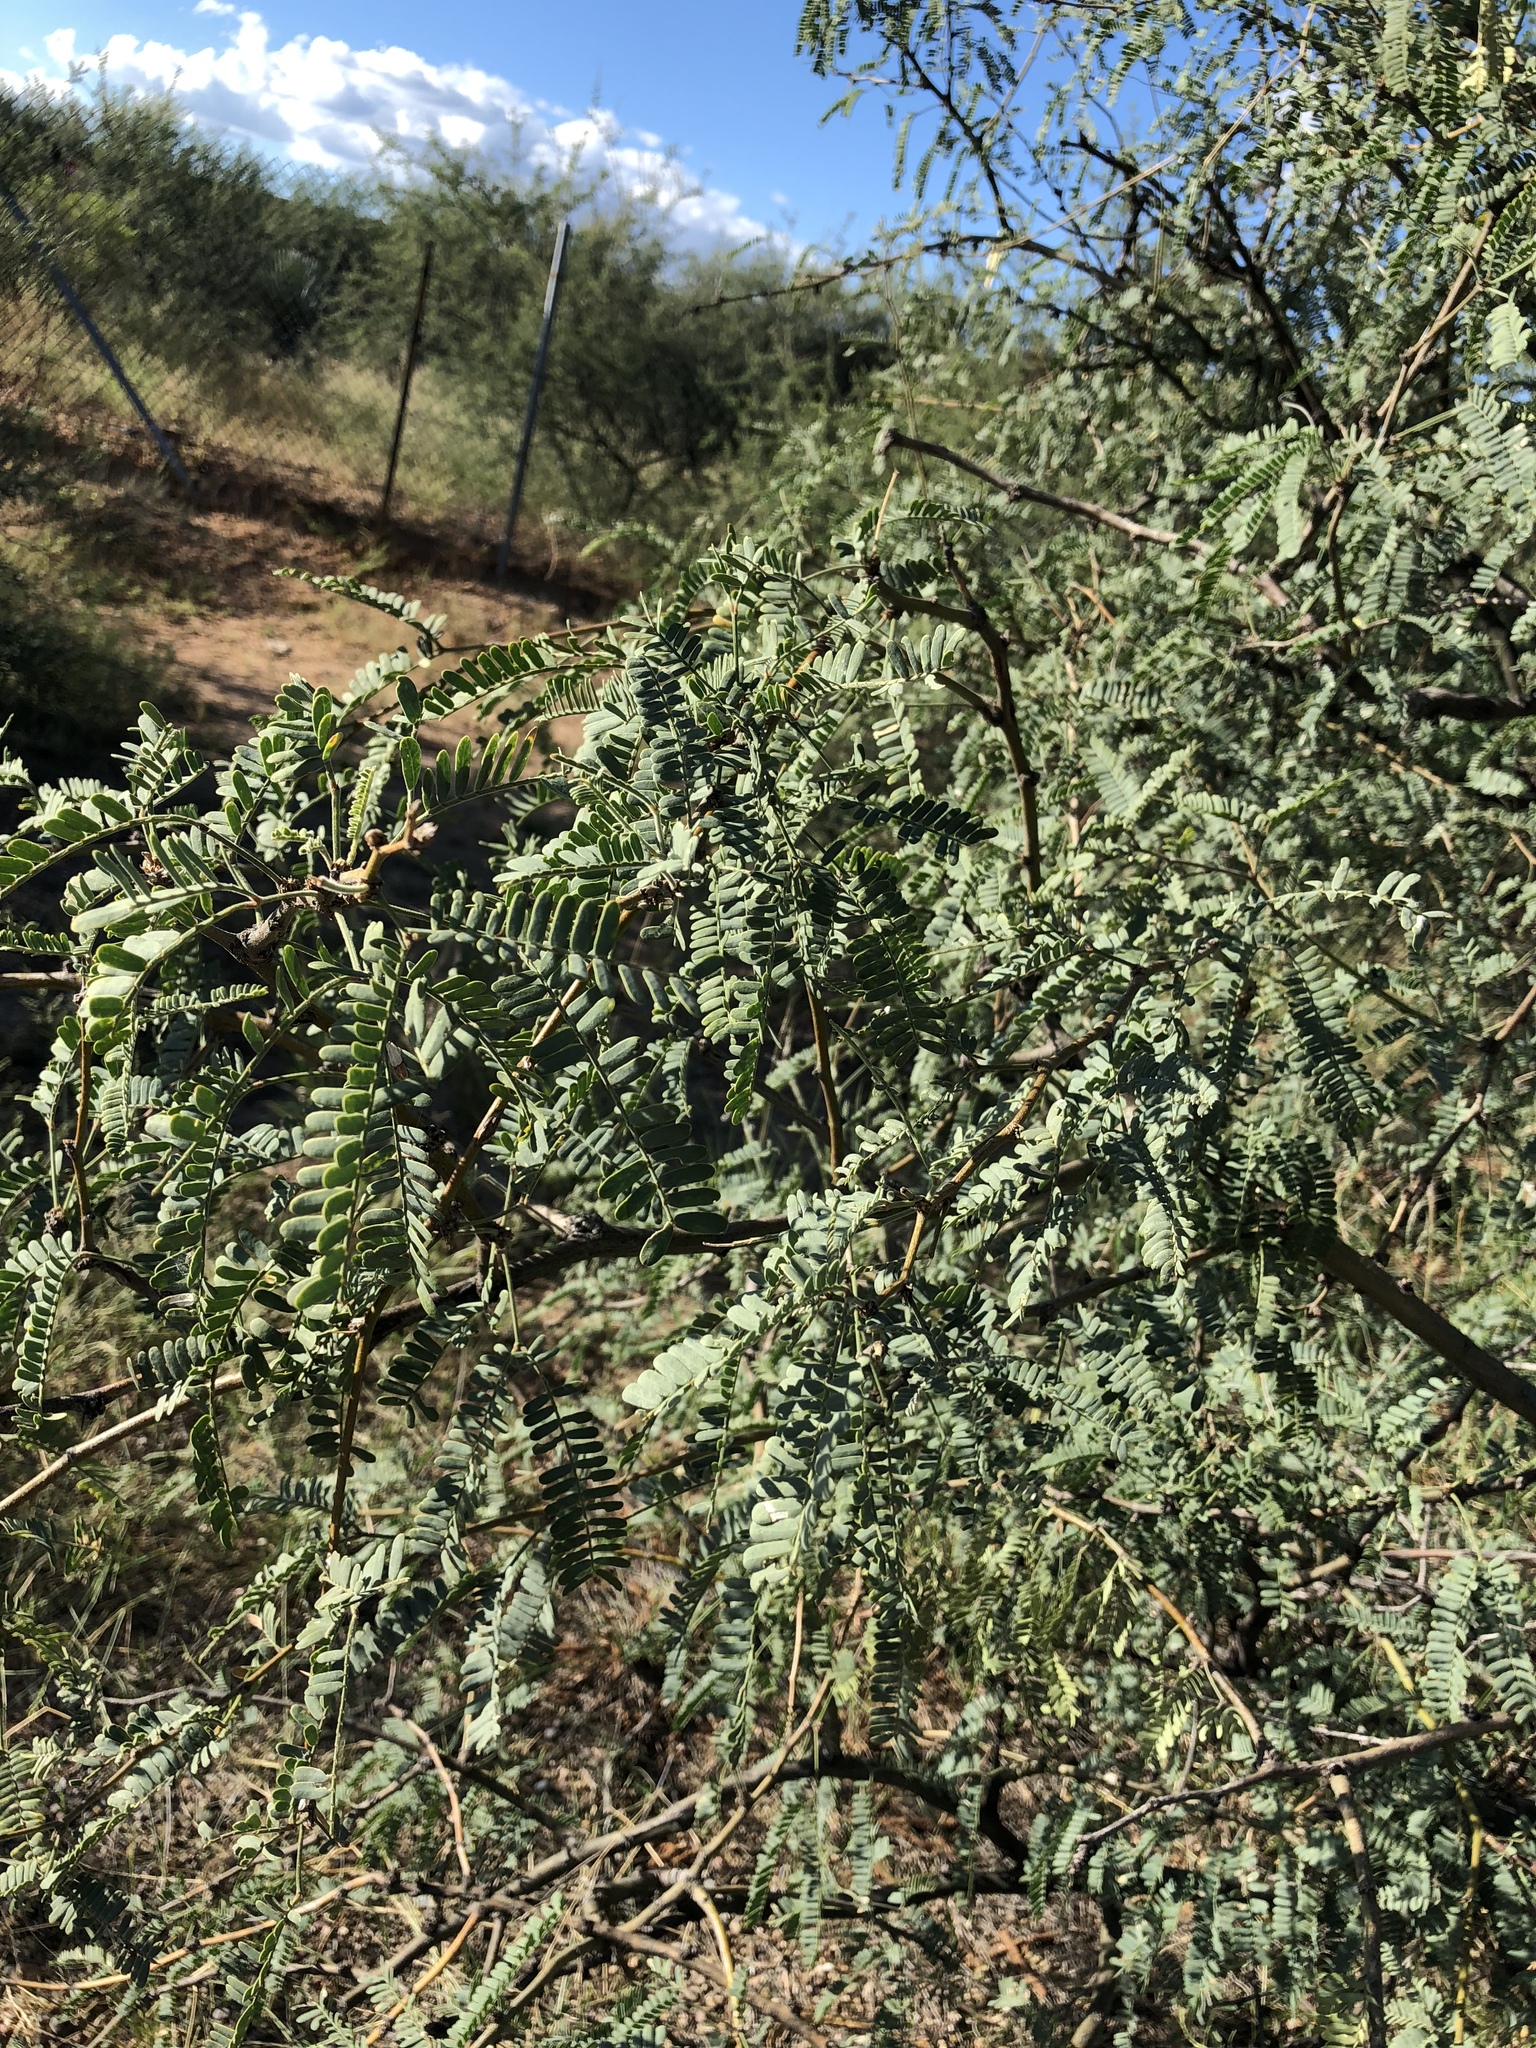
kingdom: Plantae
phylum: Tracheophyta
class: Magnoliopsida
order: Fabales
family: Fabaceae
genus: Prosopis
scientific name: Prosopis velutina
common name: Velvet mesquite
